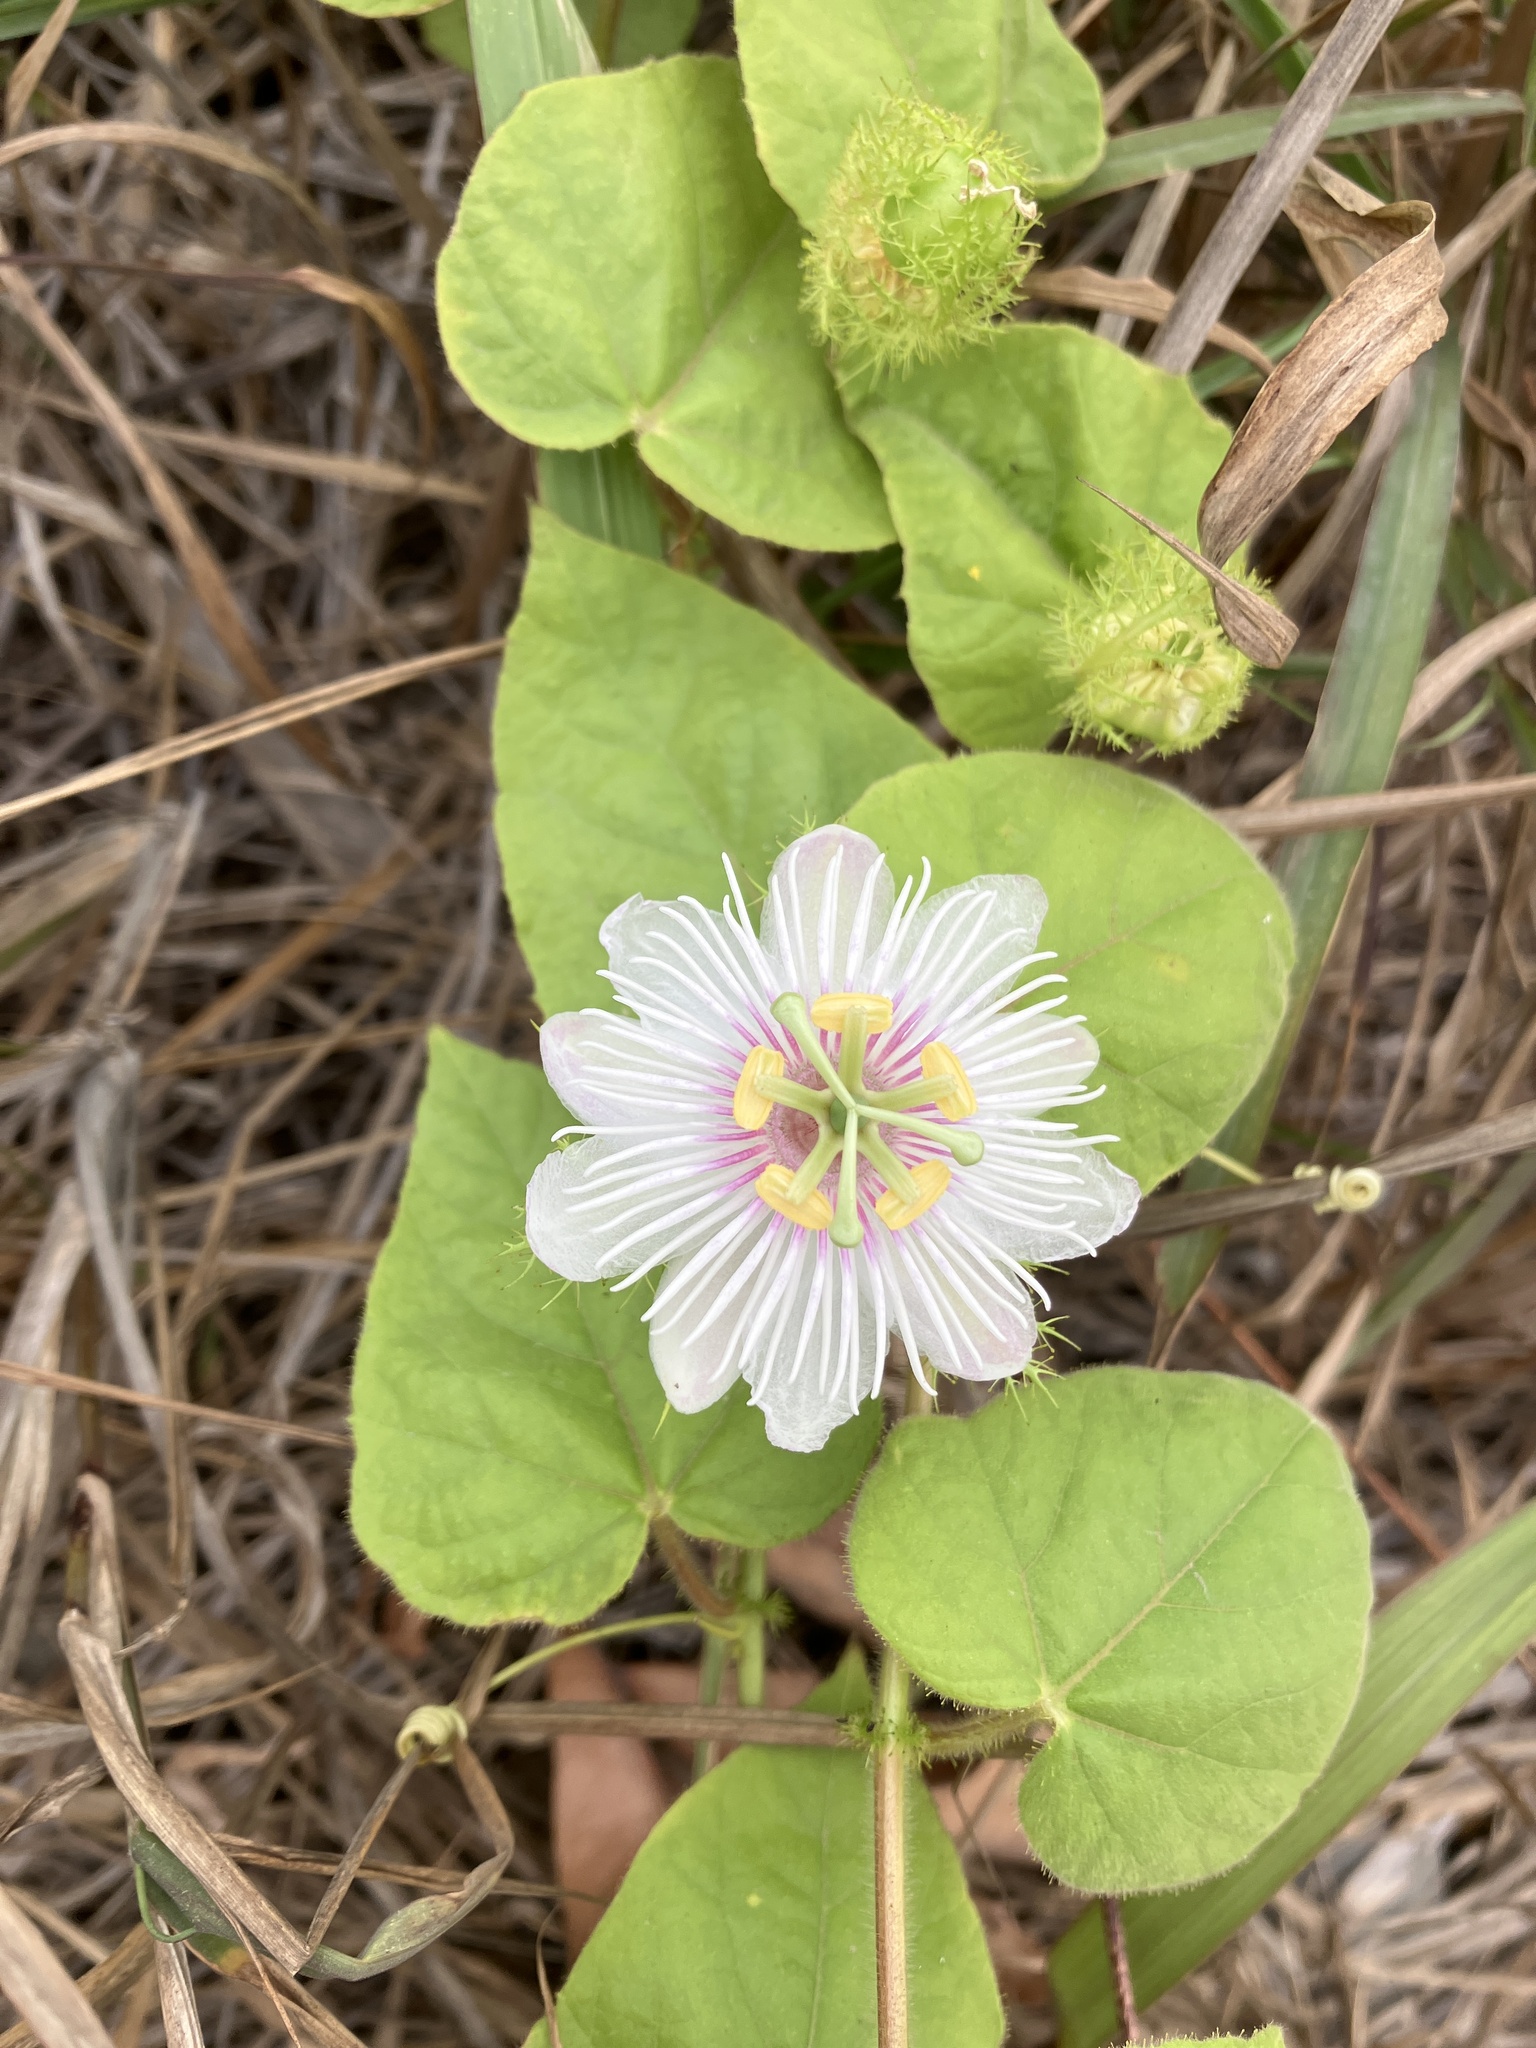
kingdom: Plantae
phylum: Tracheophyta
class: Magnoliopsida
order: Malpighiales
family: Passifloraceae
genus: Passiflora
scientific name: Passiflora vesicaria
